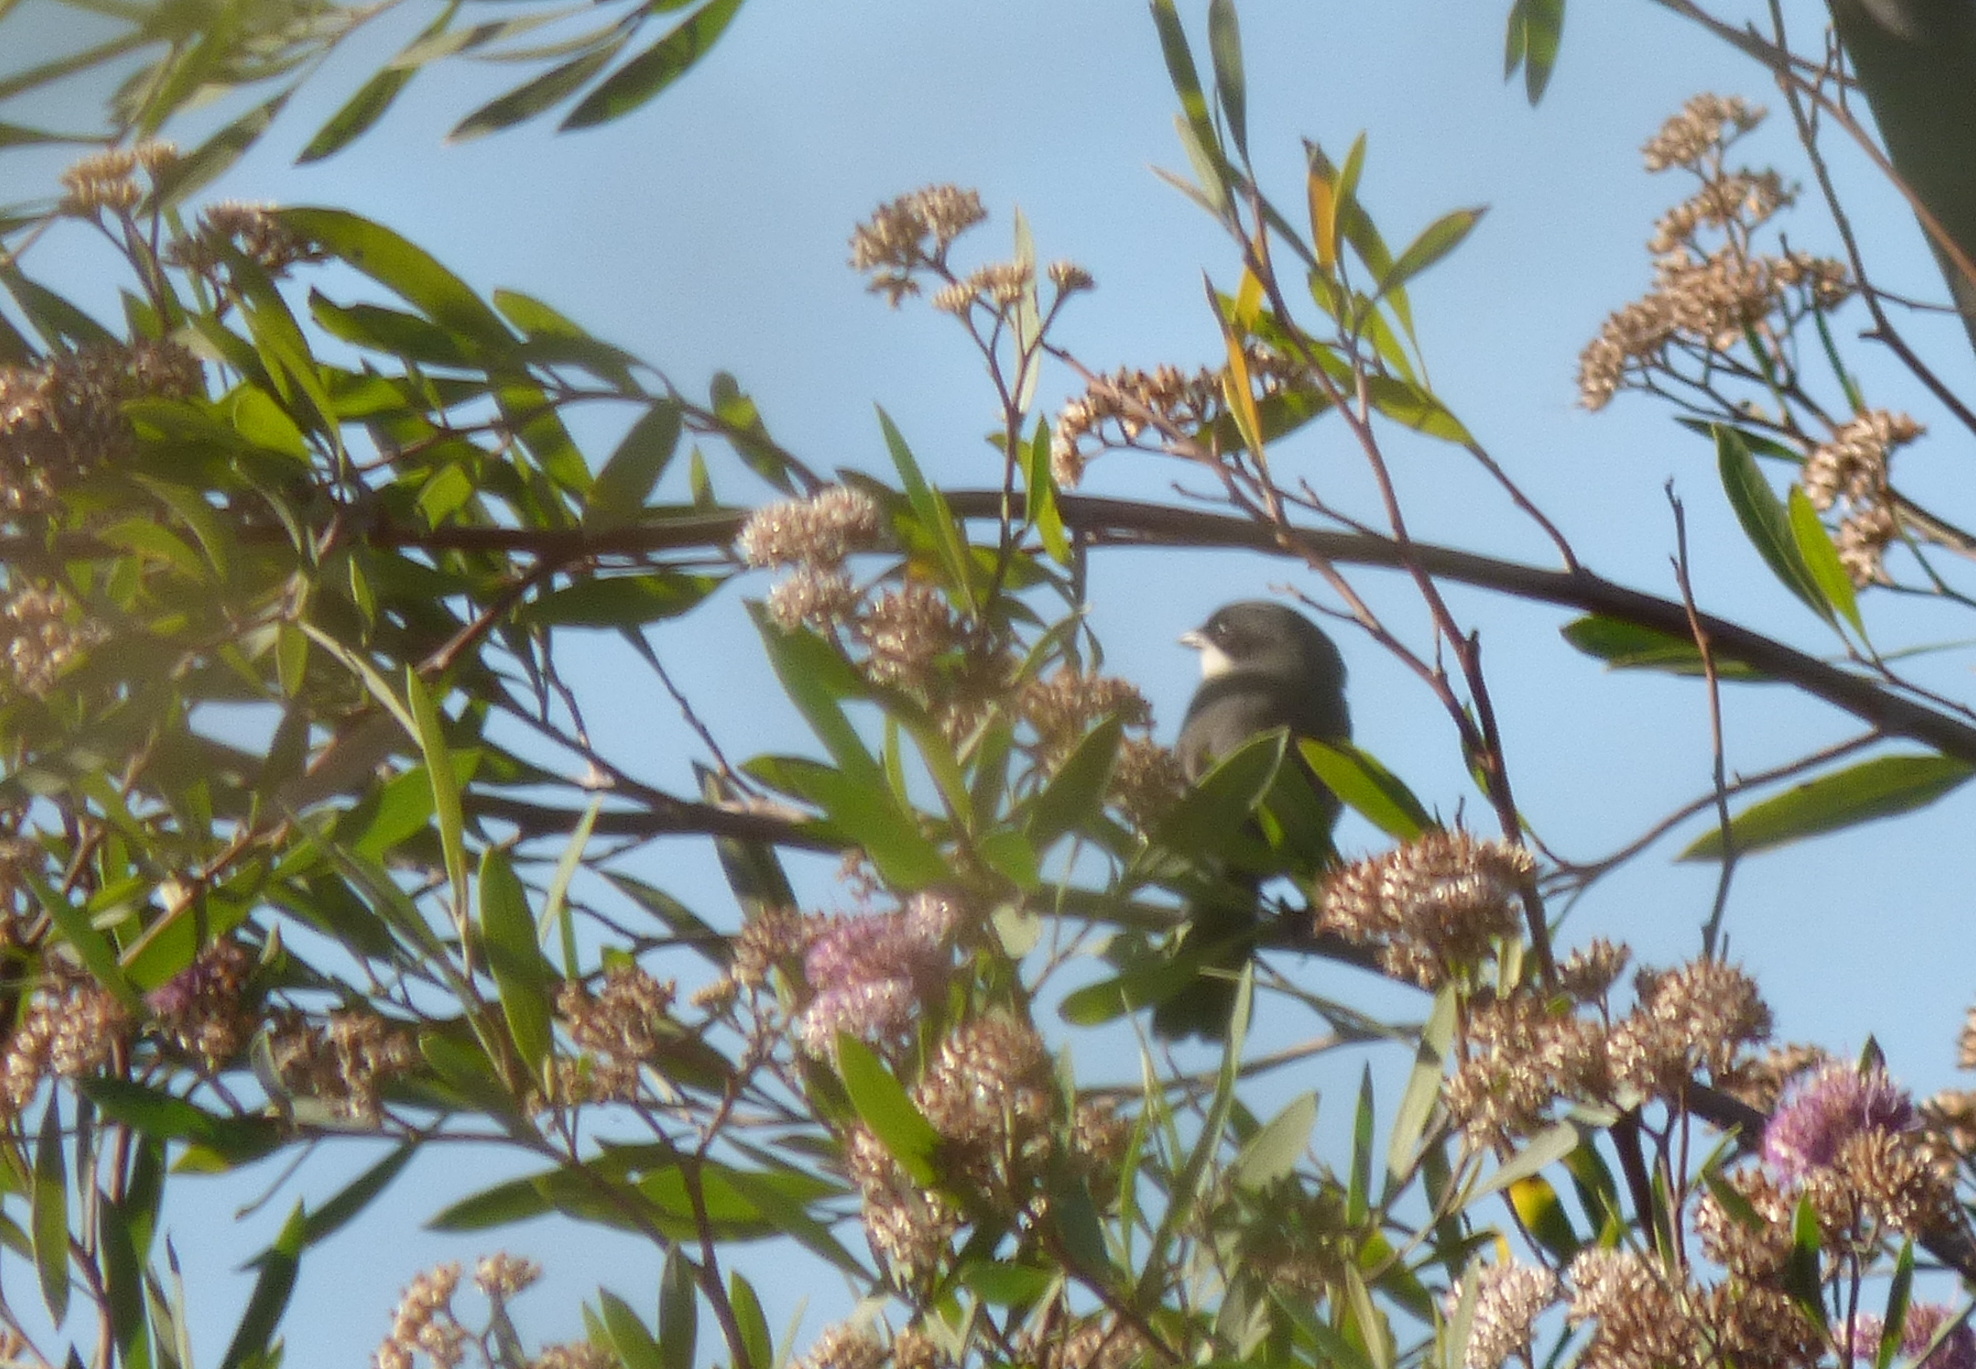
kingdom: Animalia
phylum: Chordata
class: Aves
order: Passeriformes
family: Thraupidae
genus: Microspingus
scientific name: Microspingus melanoleucus
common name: Black-capped warbling-finch
